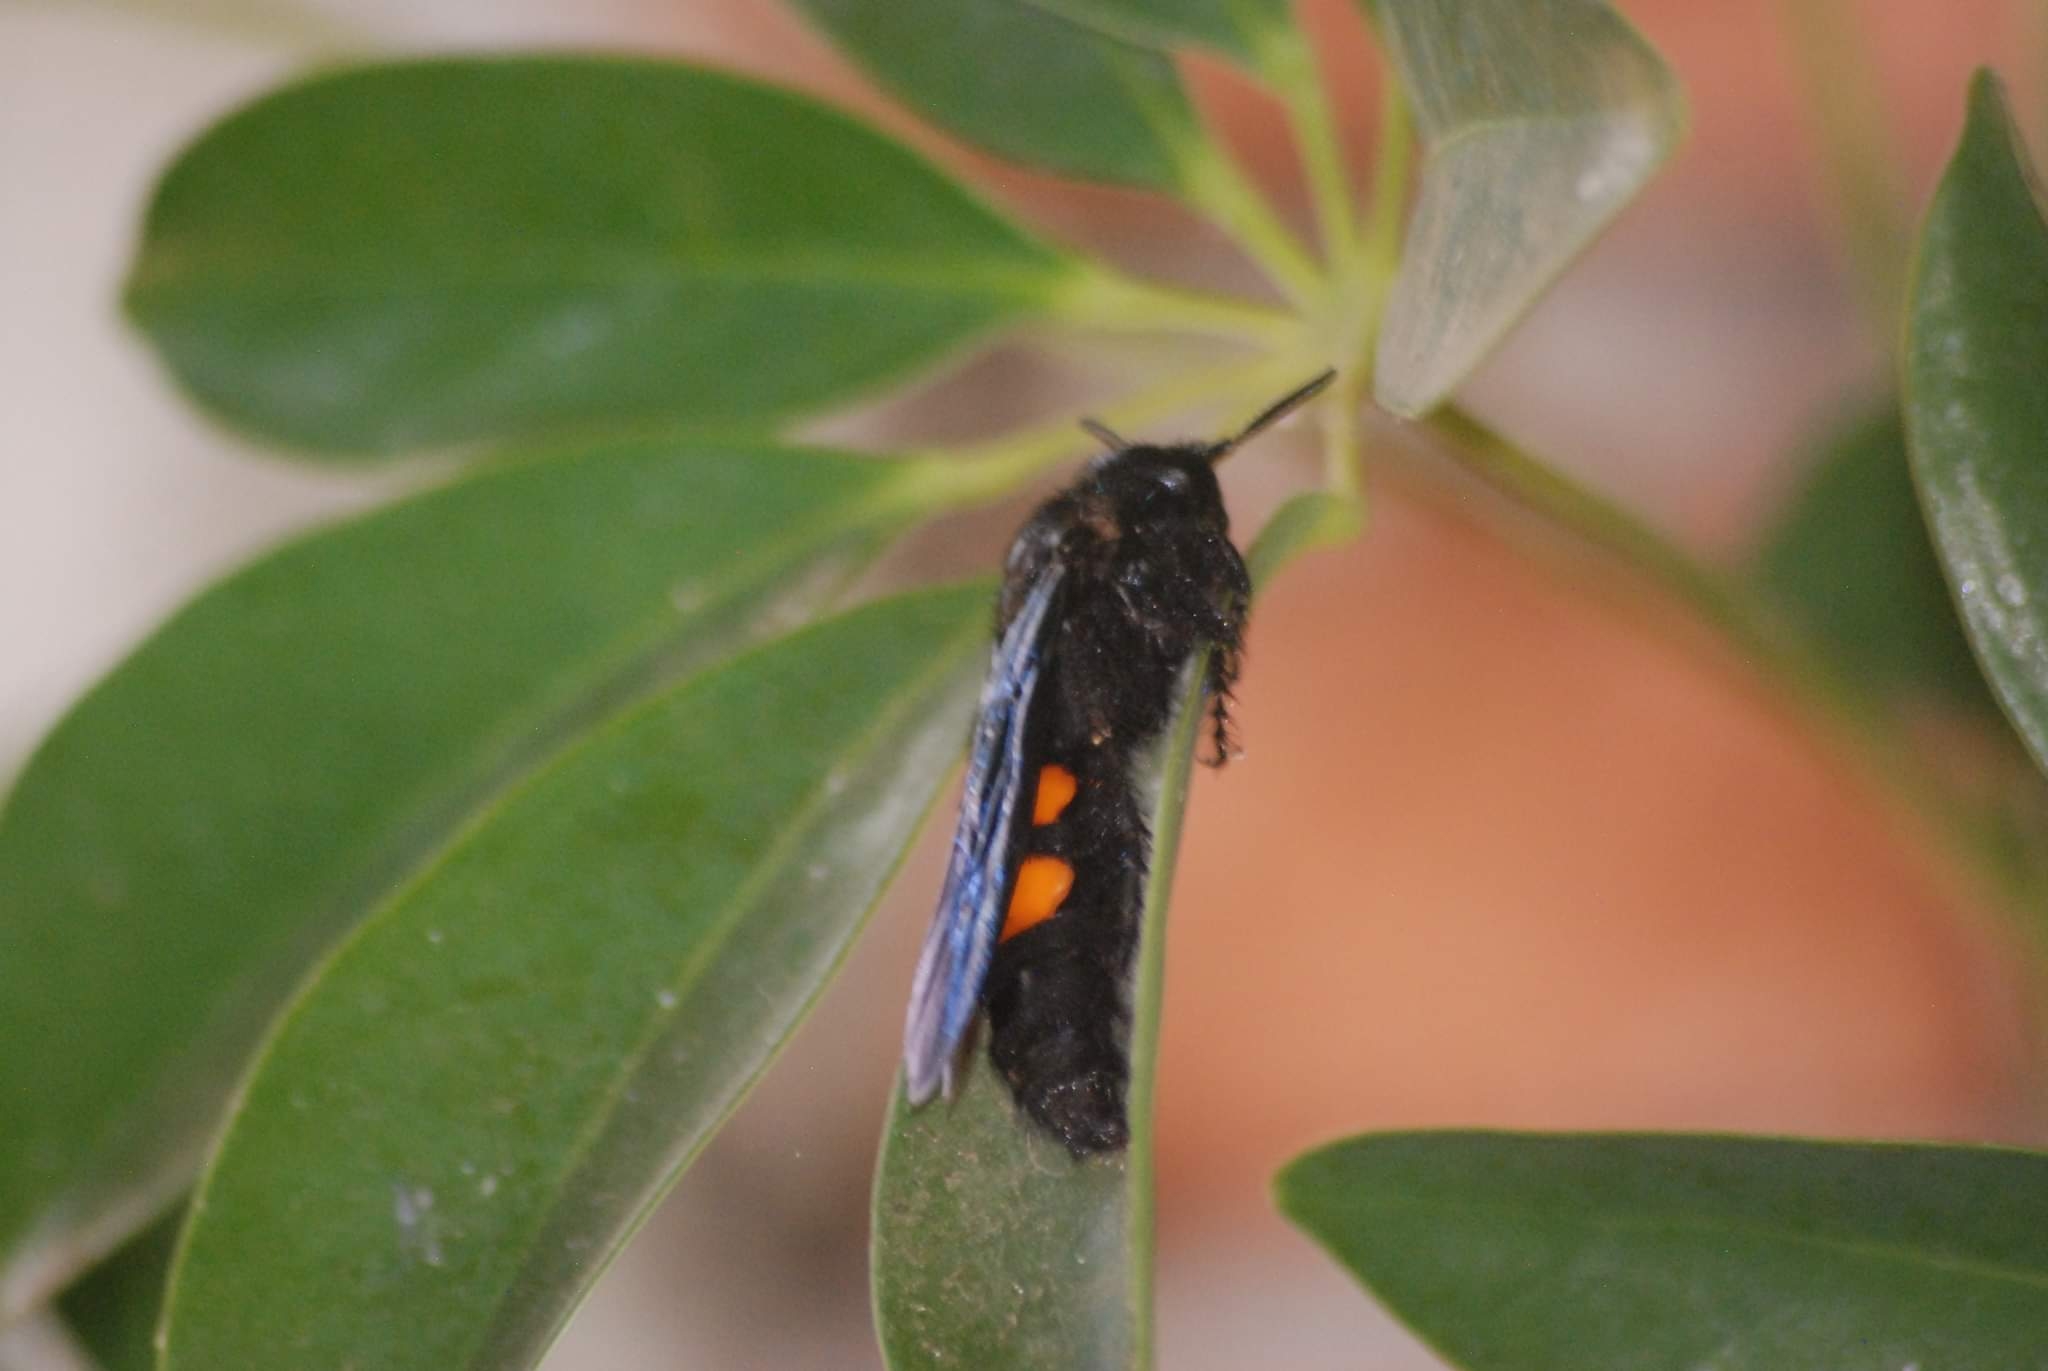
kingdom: Animalia
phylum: Arthropoda
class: Insecta
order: Hymenoptera
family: Scoliidae
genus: Pygodasis
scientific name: Pygodasis ephippium
